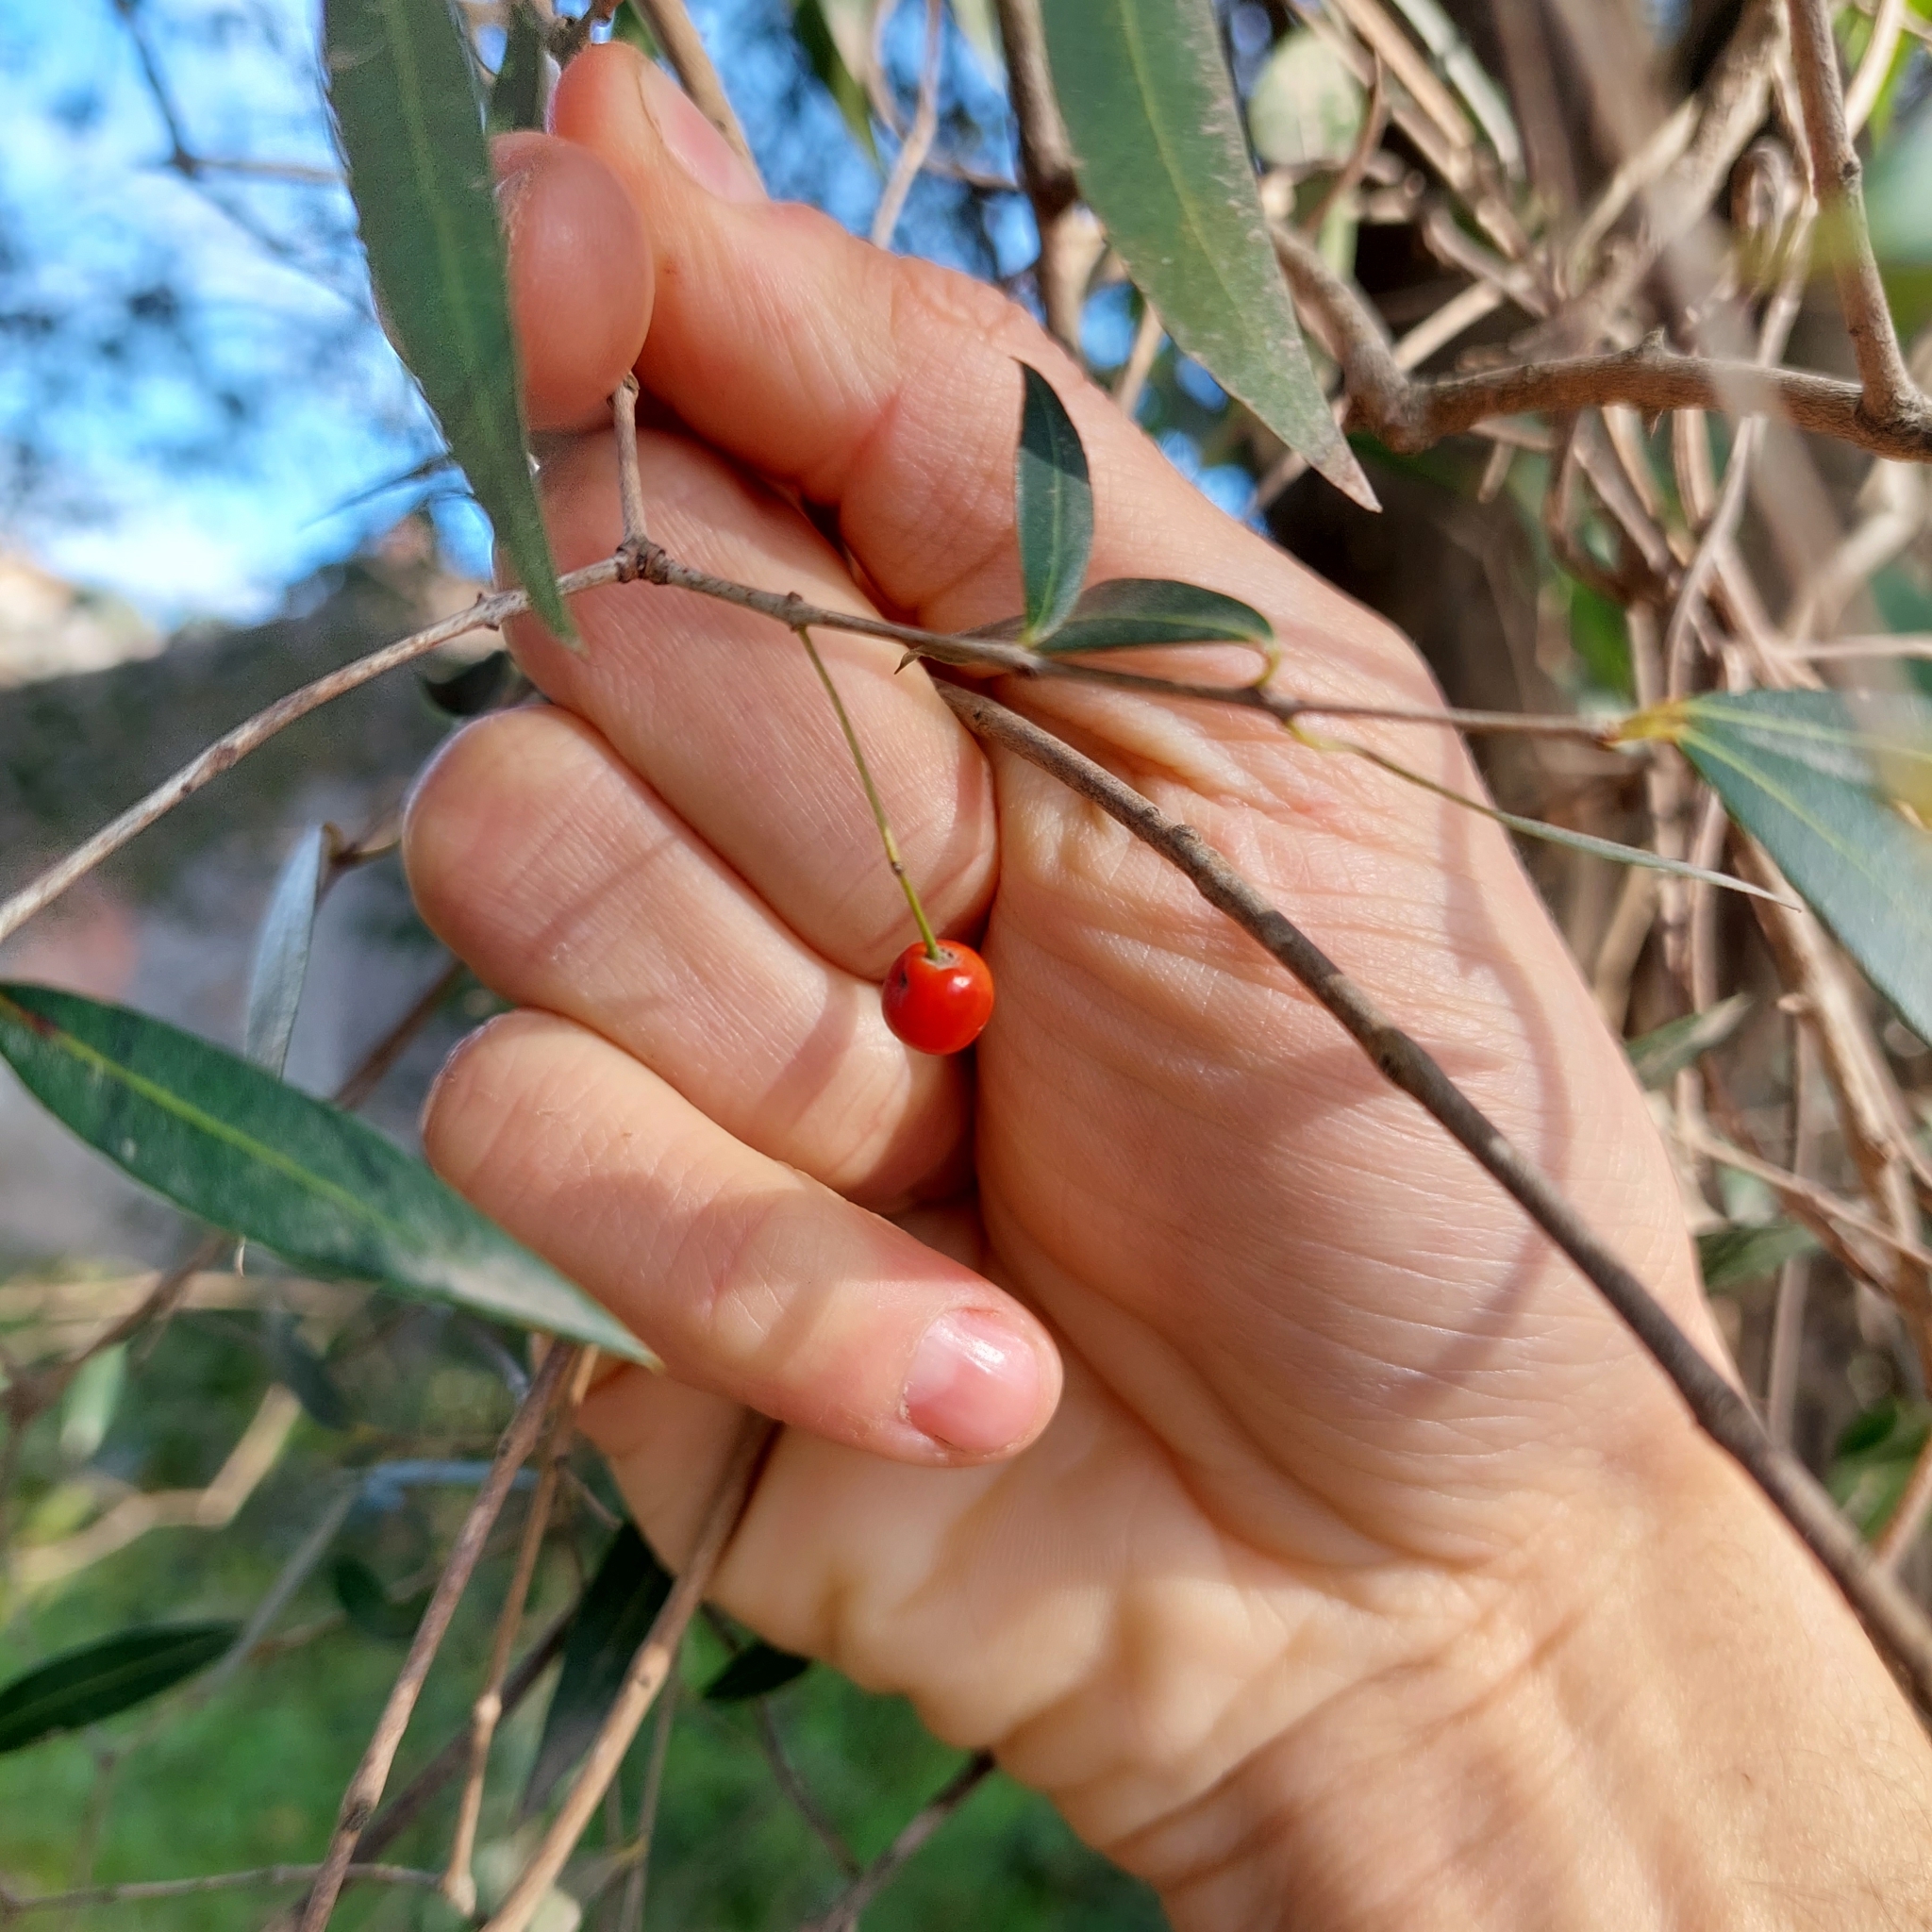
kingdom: Plantae
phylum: Tracheophyta
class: Magnoliopsida
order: Myrtales
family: Myrtaceae
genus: Blepharocalyx
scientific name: Blepharocalyx salicifolius
